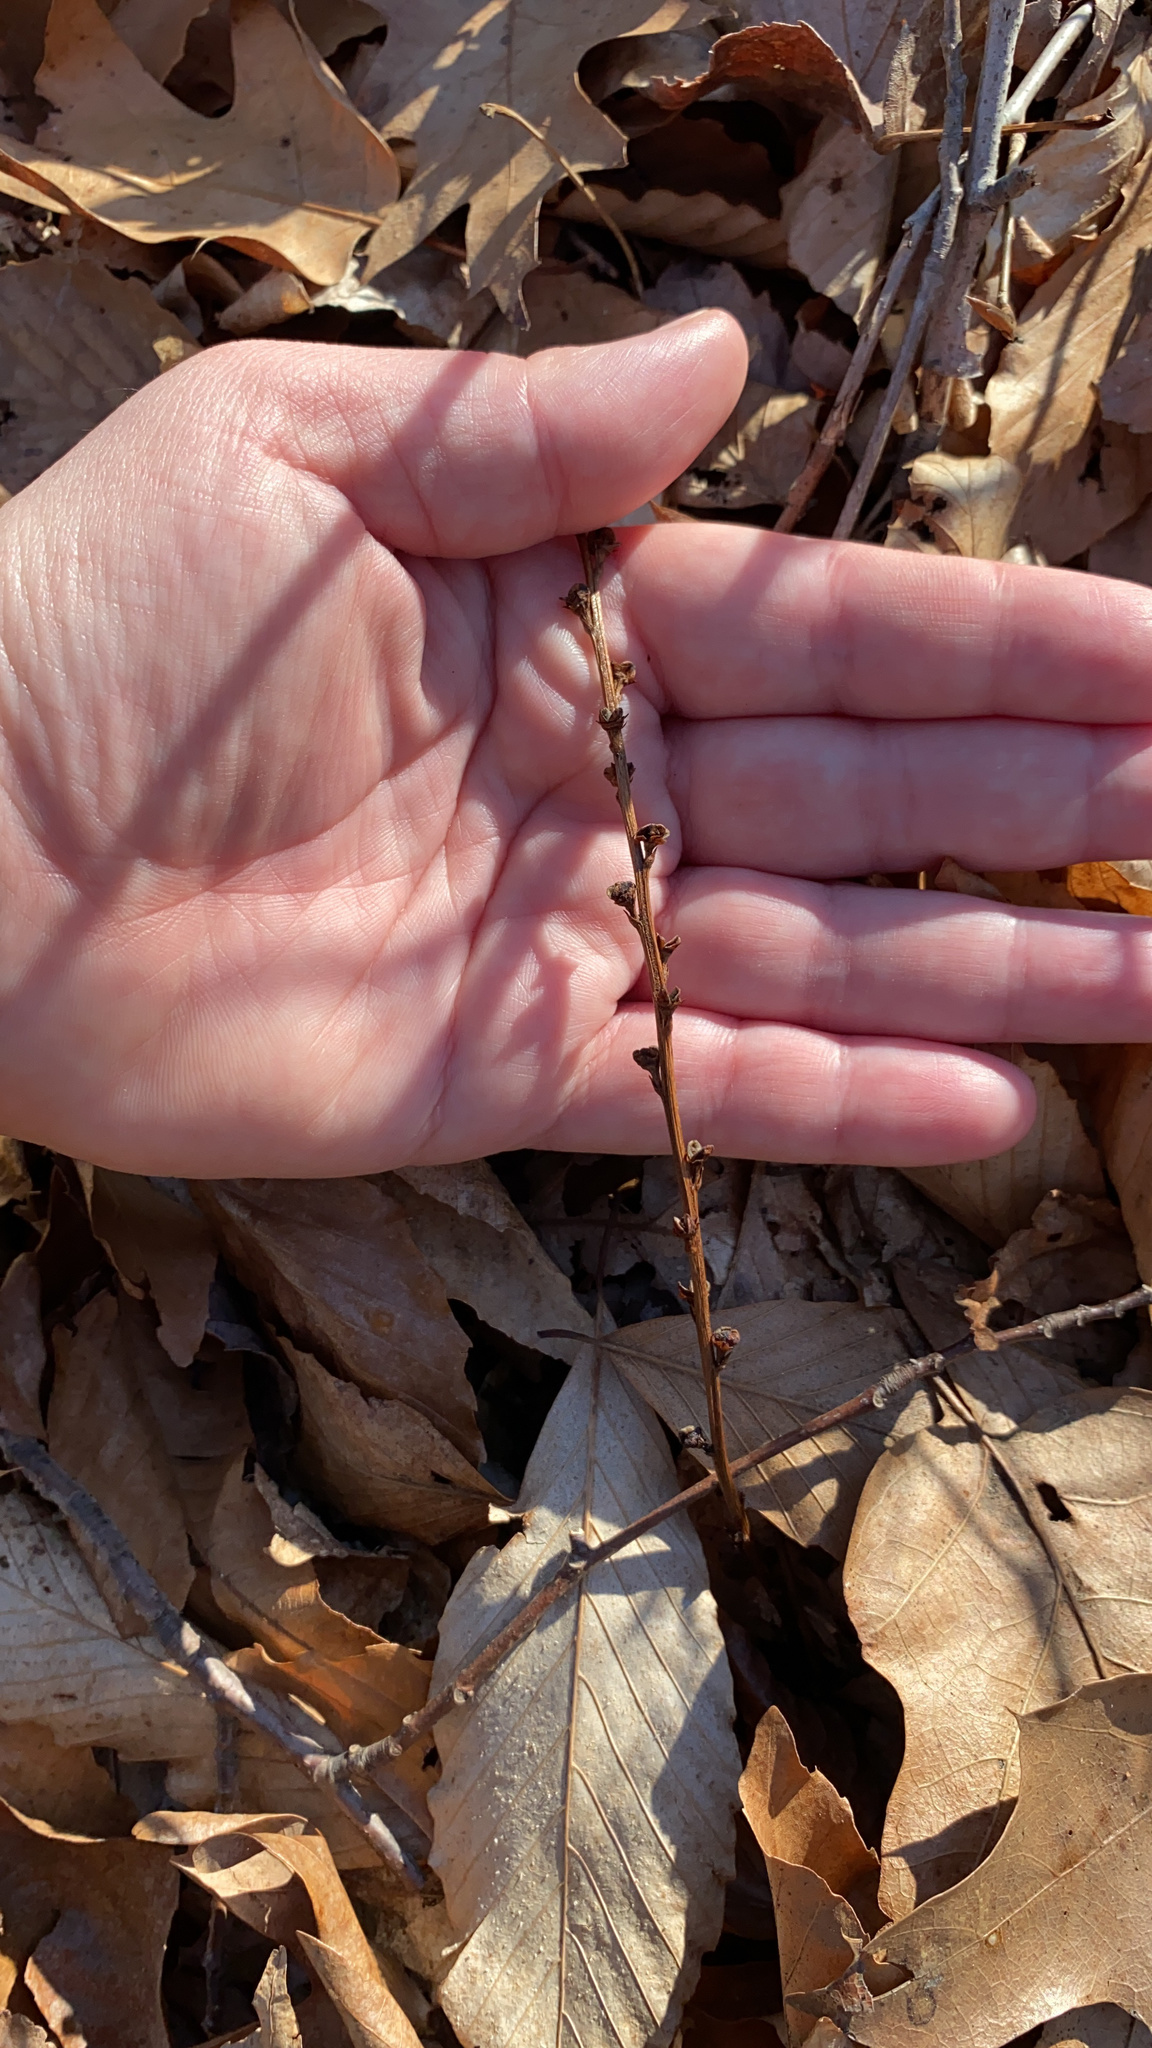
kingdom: Plantae
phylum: Tracheophyta
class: Magnoliopsida
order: Lamiales
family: Orobanchaceae
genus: Epifagus
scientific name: Epifagus virginiana
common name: Beechdrops
